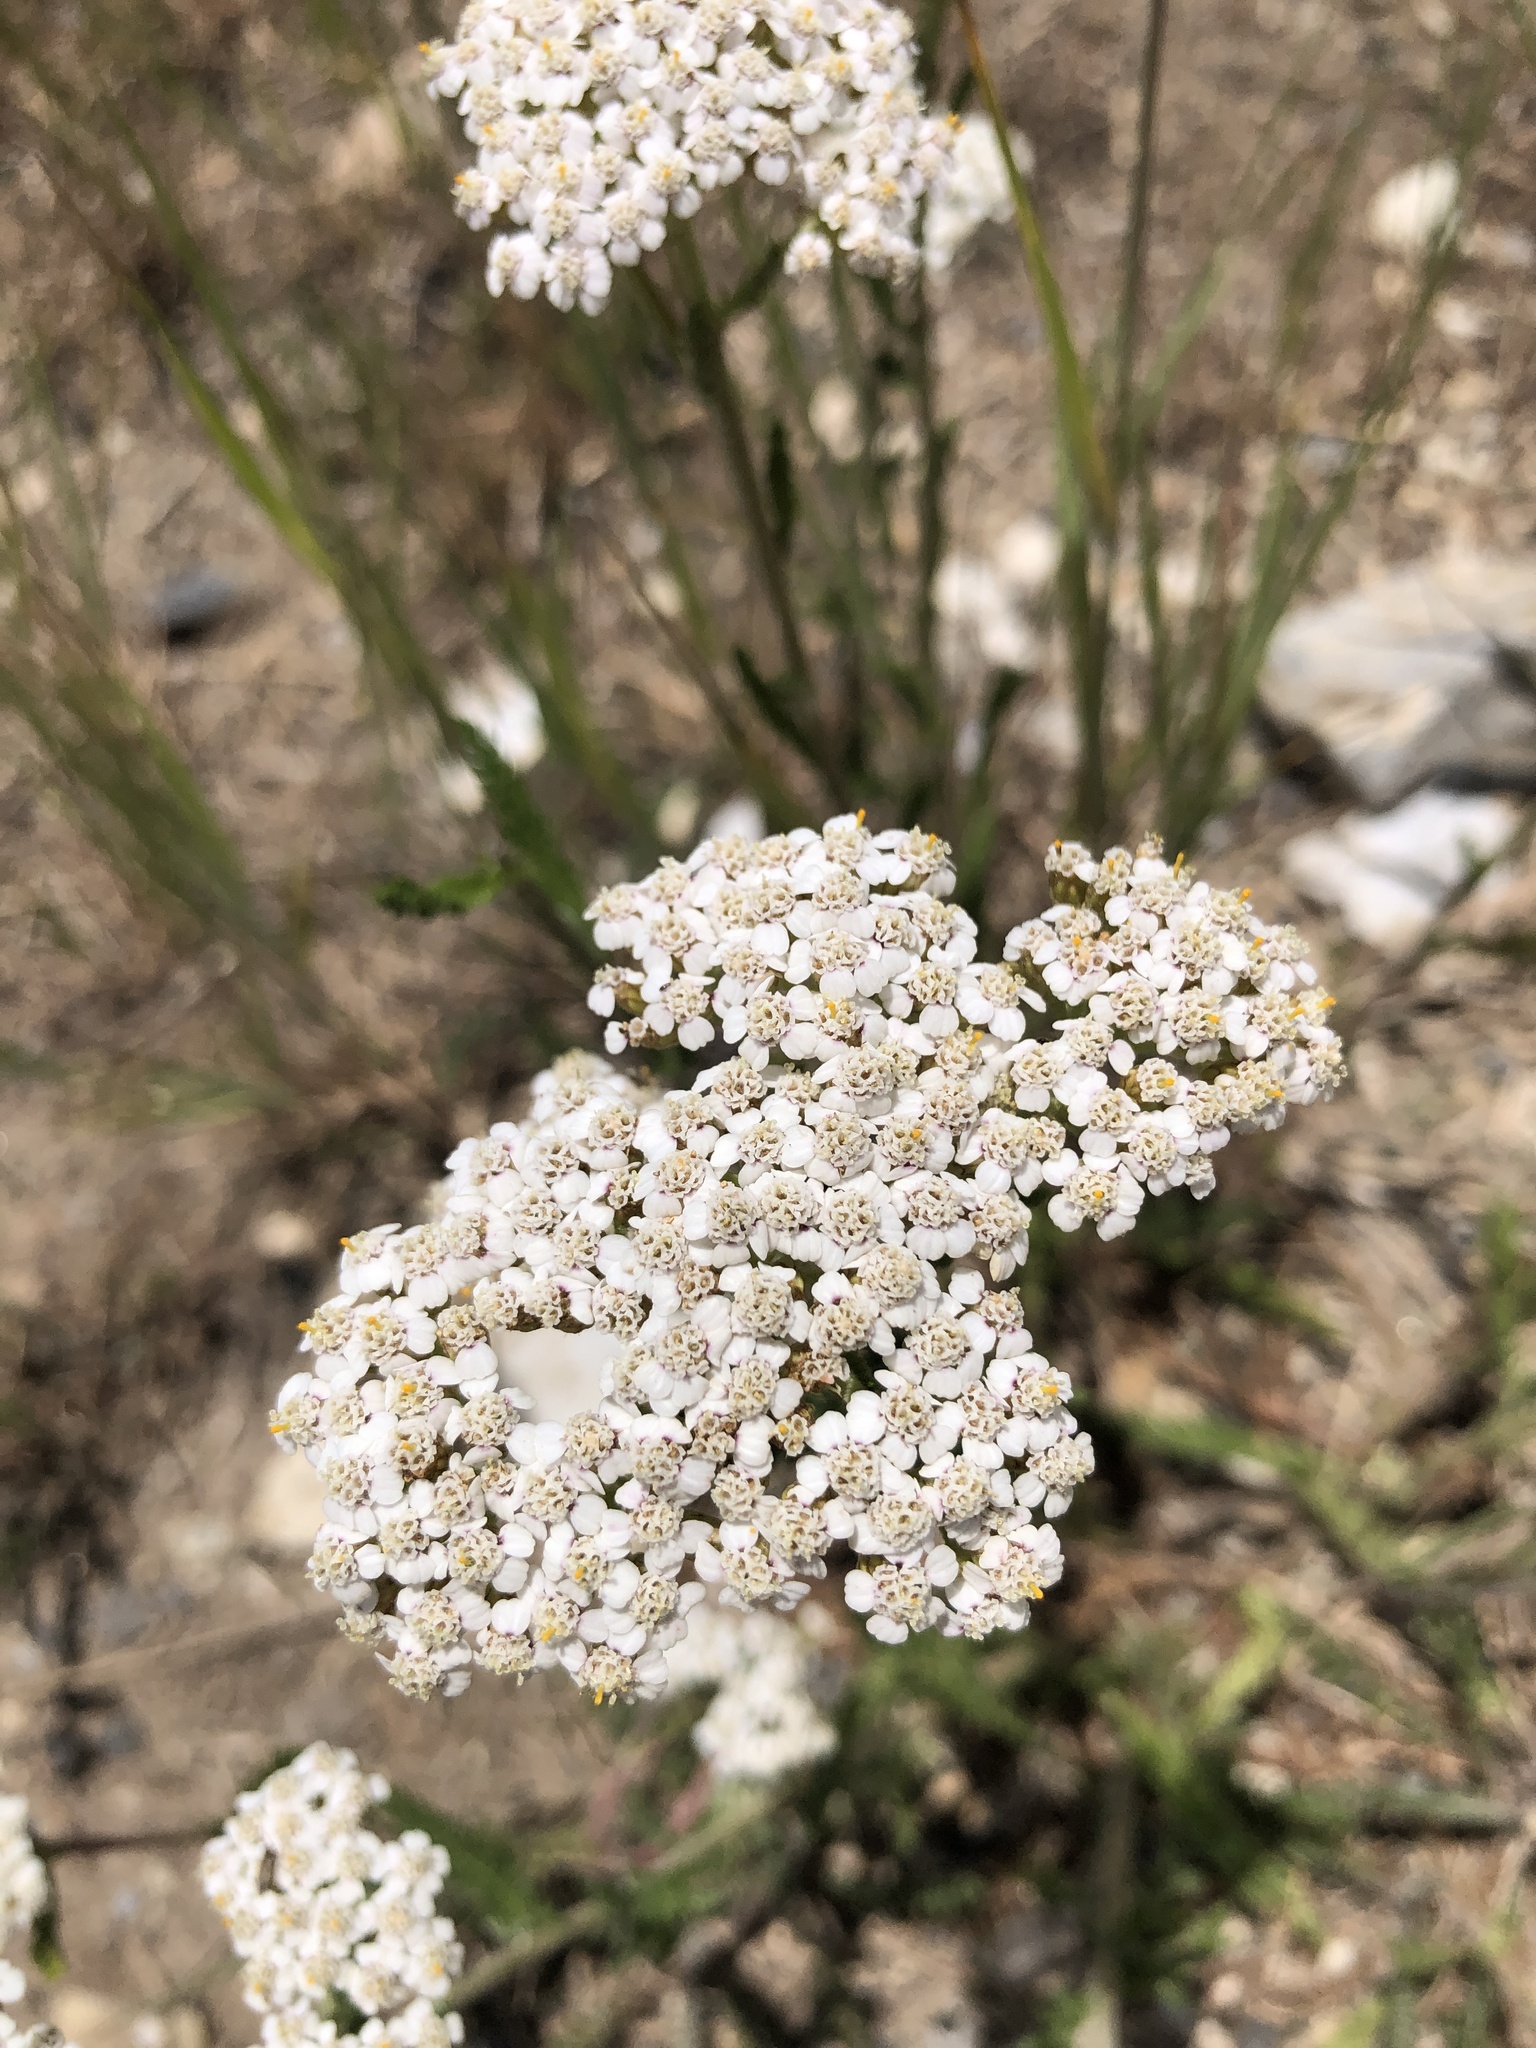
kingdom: Plantae
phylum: Tracheophyta
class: Magnoliopsida
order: Asterales
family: Asteraceae
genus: Achillea
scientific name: Achillea millefolium
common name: Yarrow
